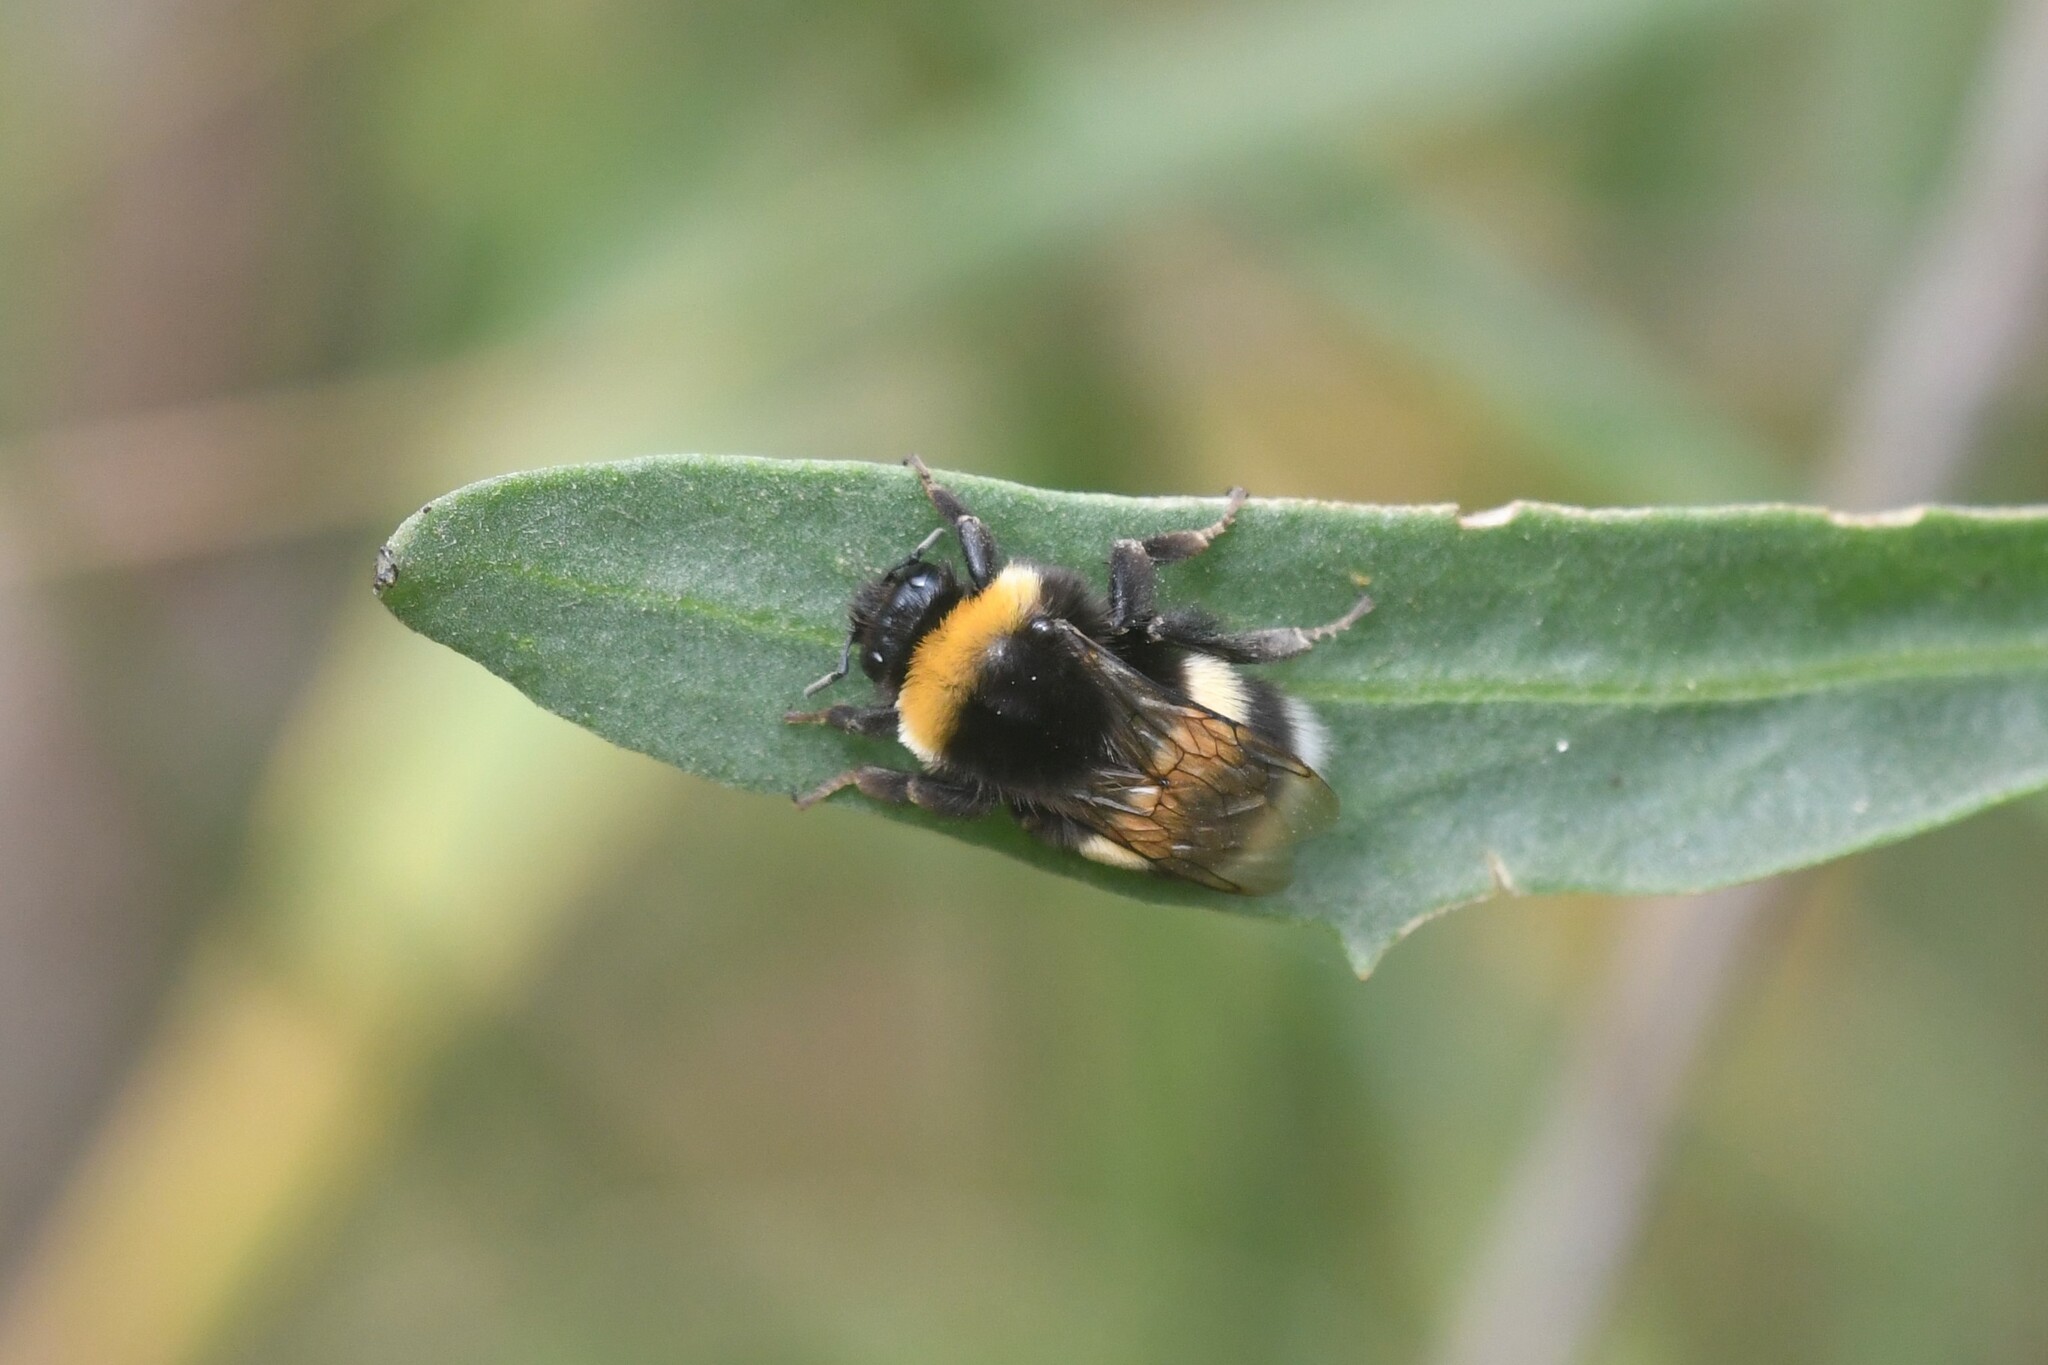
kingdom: Animalia
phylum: Arthropoda
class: Insecta
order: Hymenoptera
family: Apidae
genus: Bombus
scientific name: Bombus terrestris
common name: Buff-tailed bumblebee
